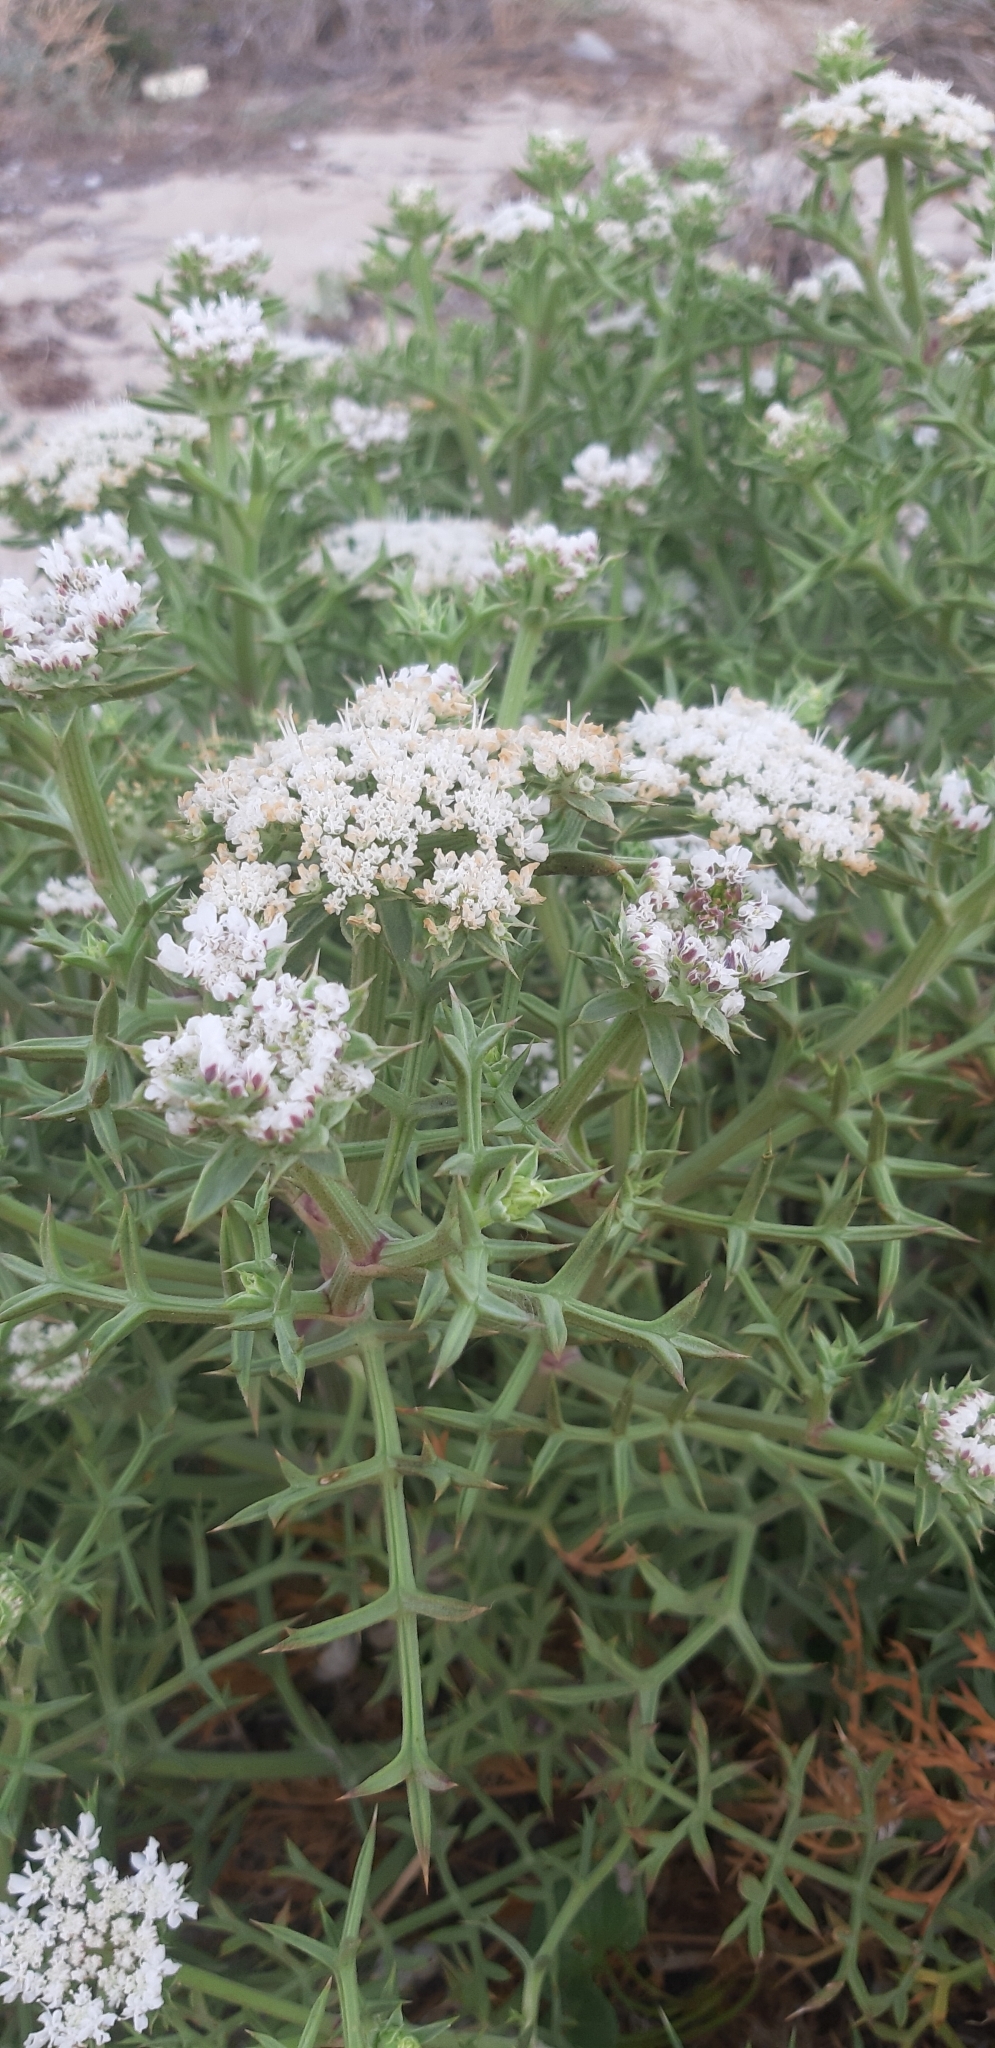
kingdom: Plantae
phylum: Tracheophyta
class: Magnoliopsida
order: Apiales
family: Apiaceae
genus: Echinophora
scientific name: Echinophora spinosa
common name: Prickly samphire
